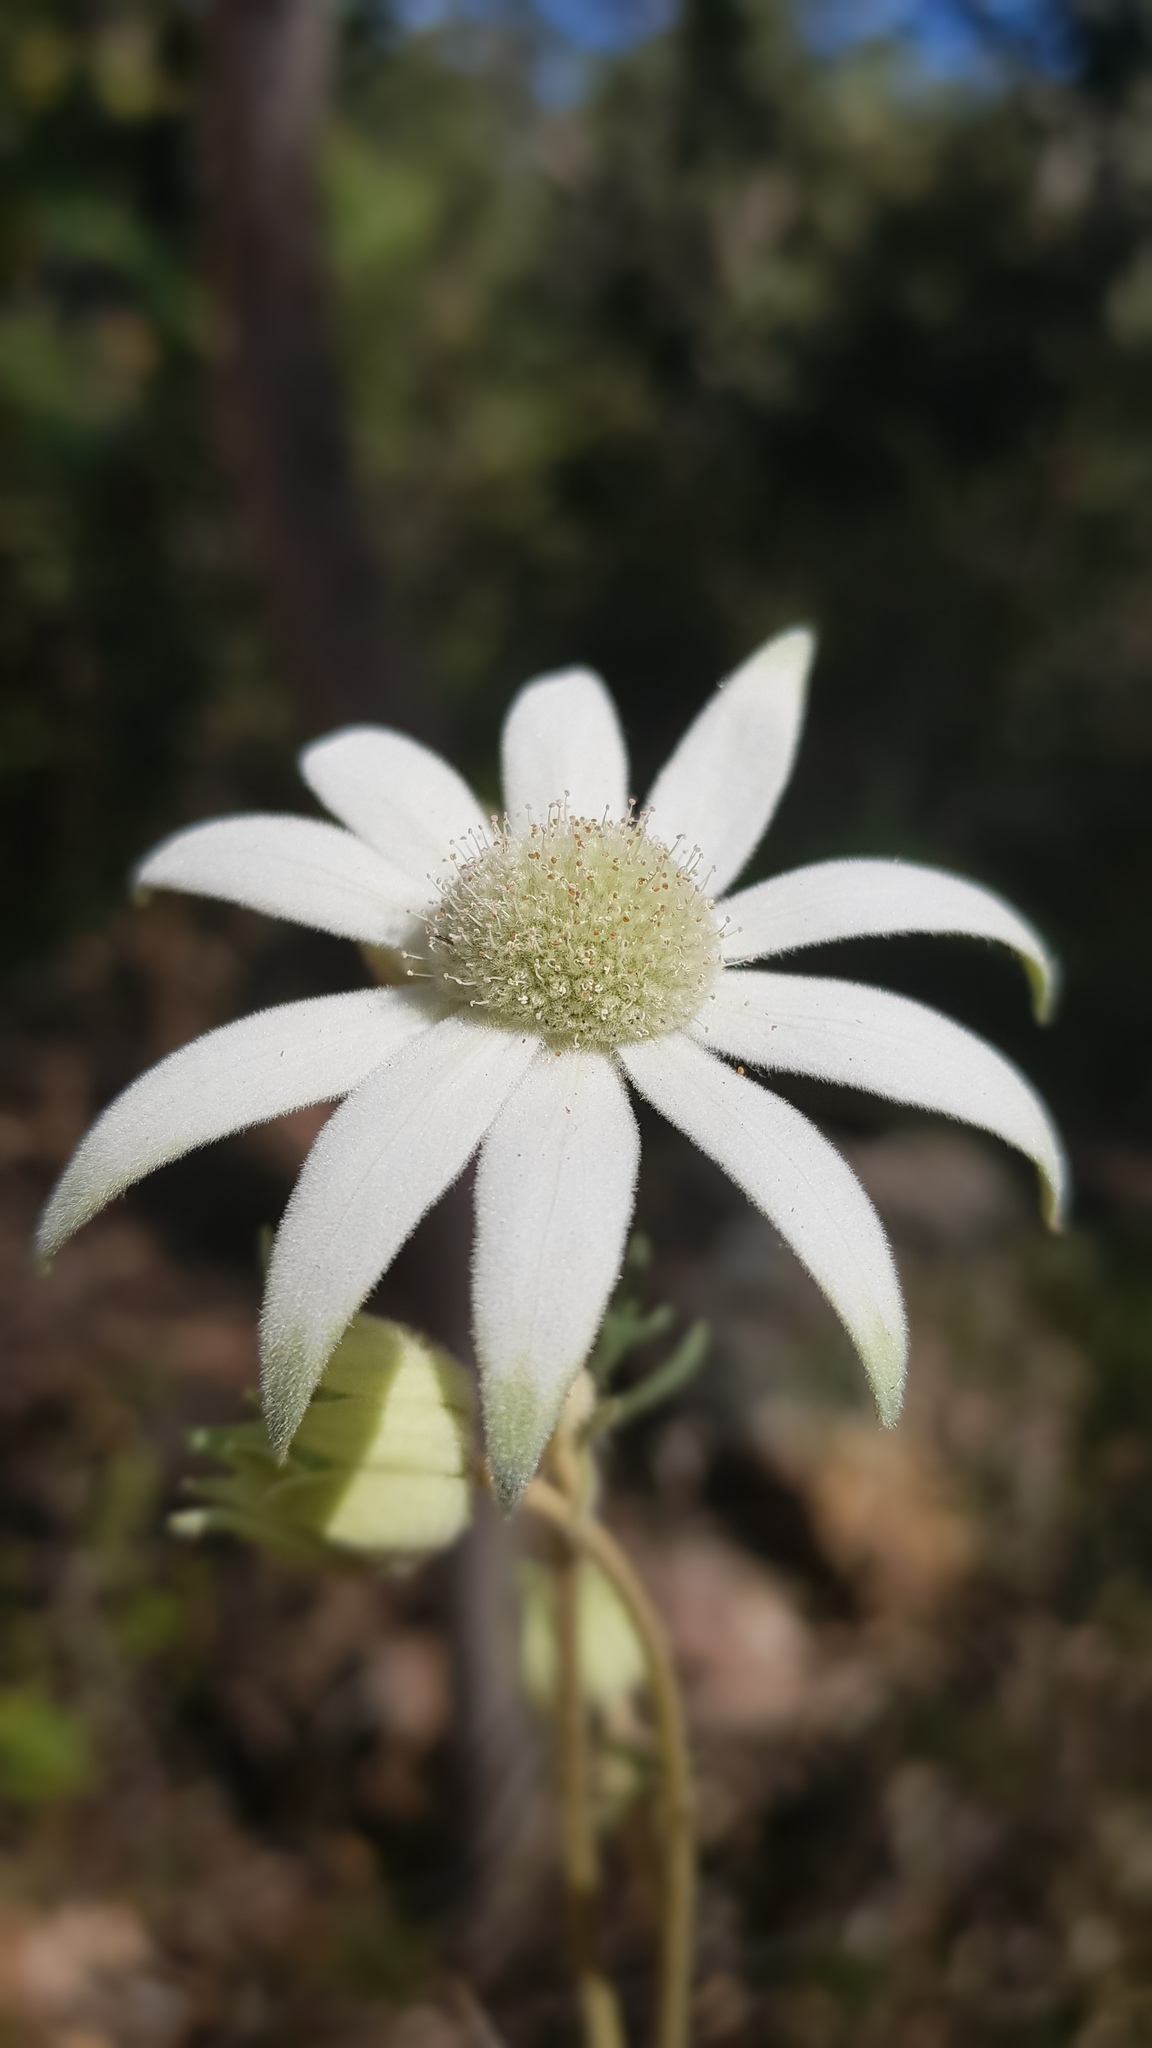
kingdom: Plantae
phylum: Tracheophyta
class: Magnoliopsida
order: Apiales
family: Apiaceae
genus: Actinotus
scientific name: Actinotus helianthi
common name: Flannel-flower
